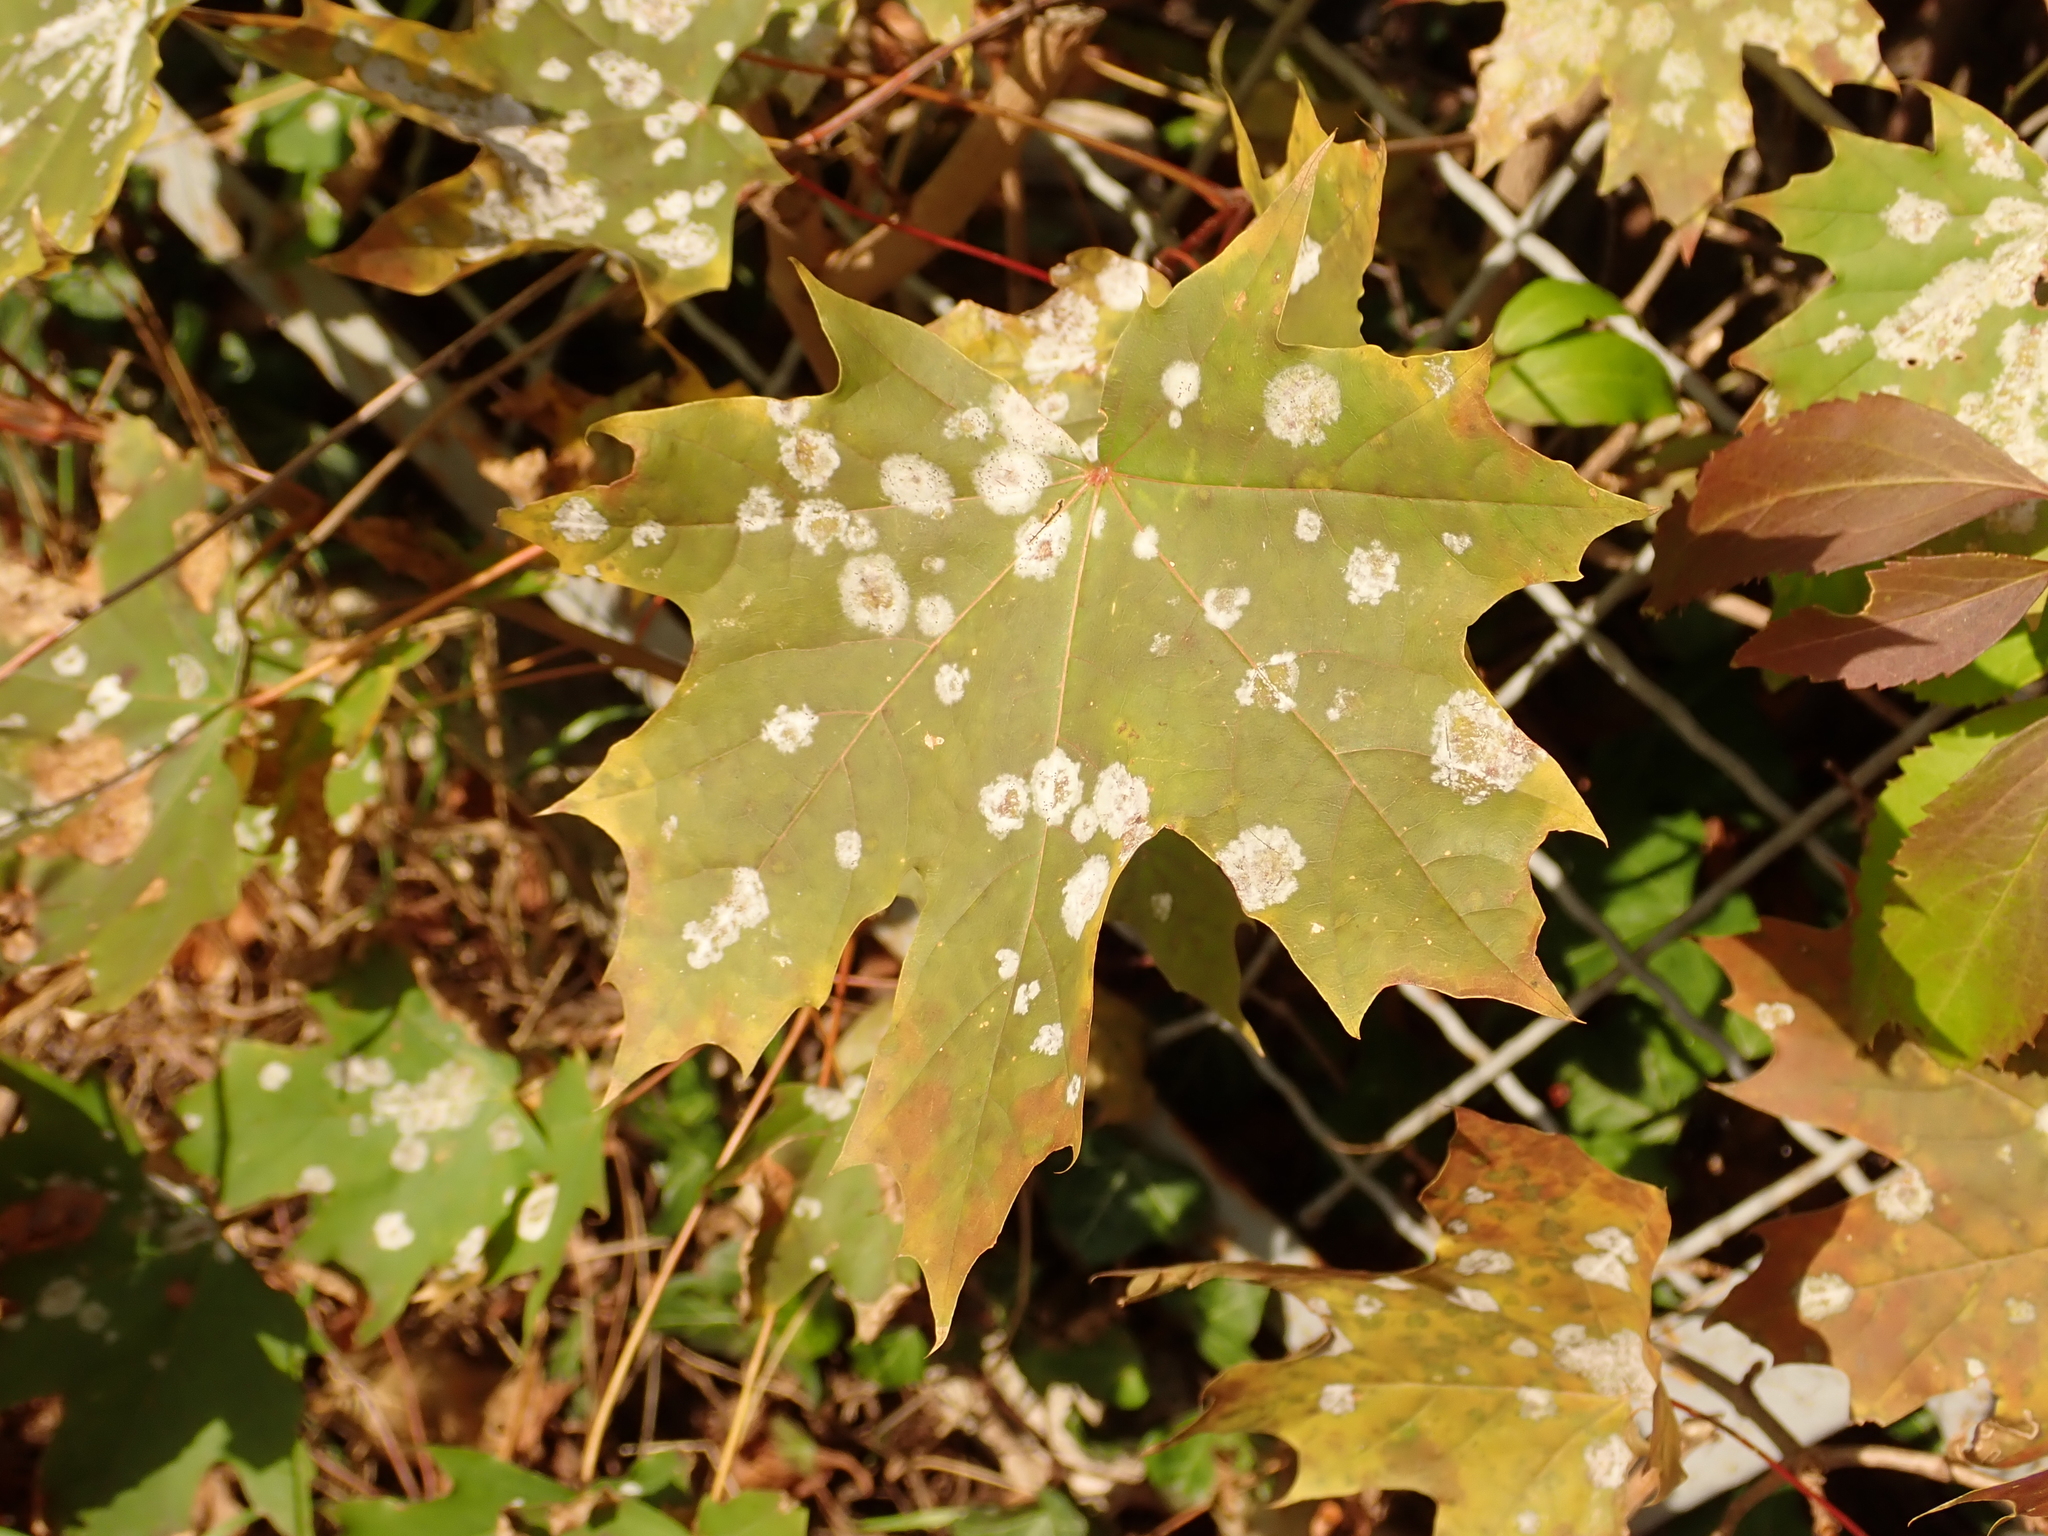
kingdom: Plantae
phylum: Tracheophyta
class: Magnoliopsida
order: Sapindales
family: Sapindaceae
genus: Acer
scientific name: Acer platanoides
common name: Norway maple
